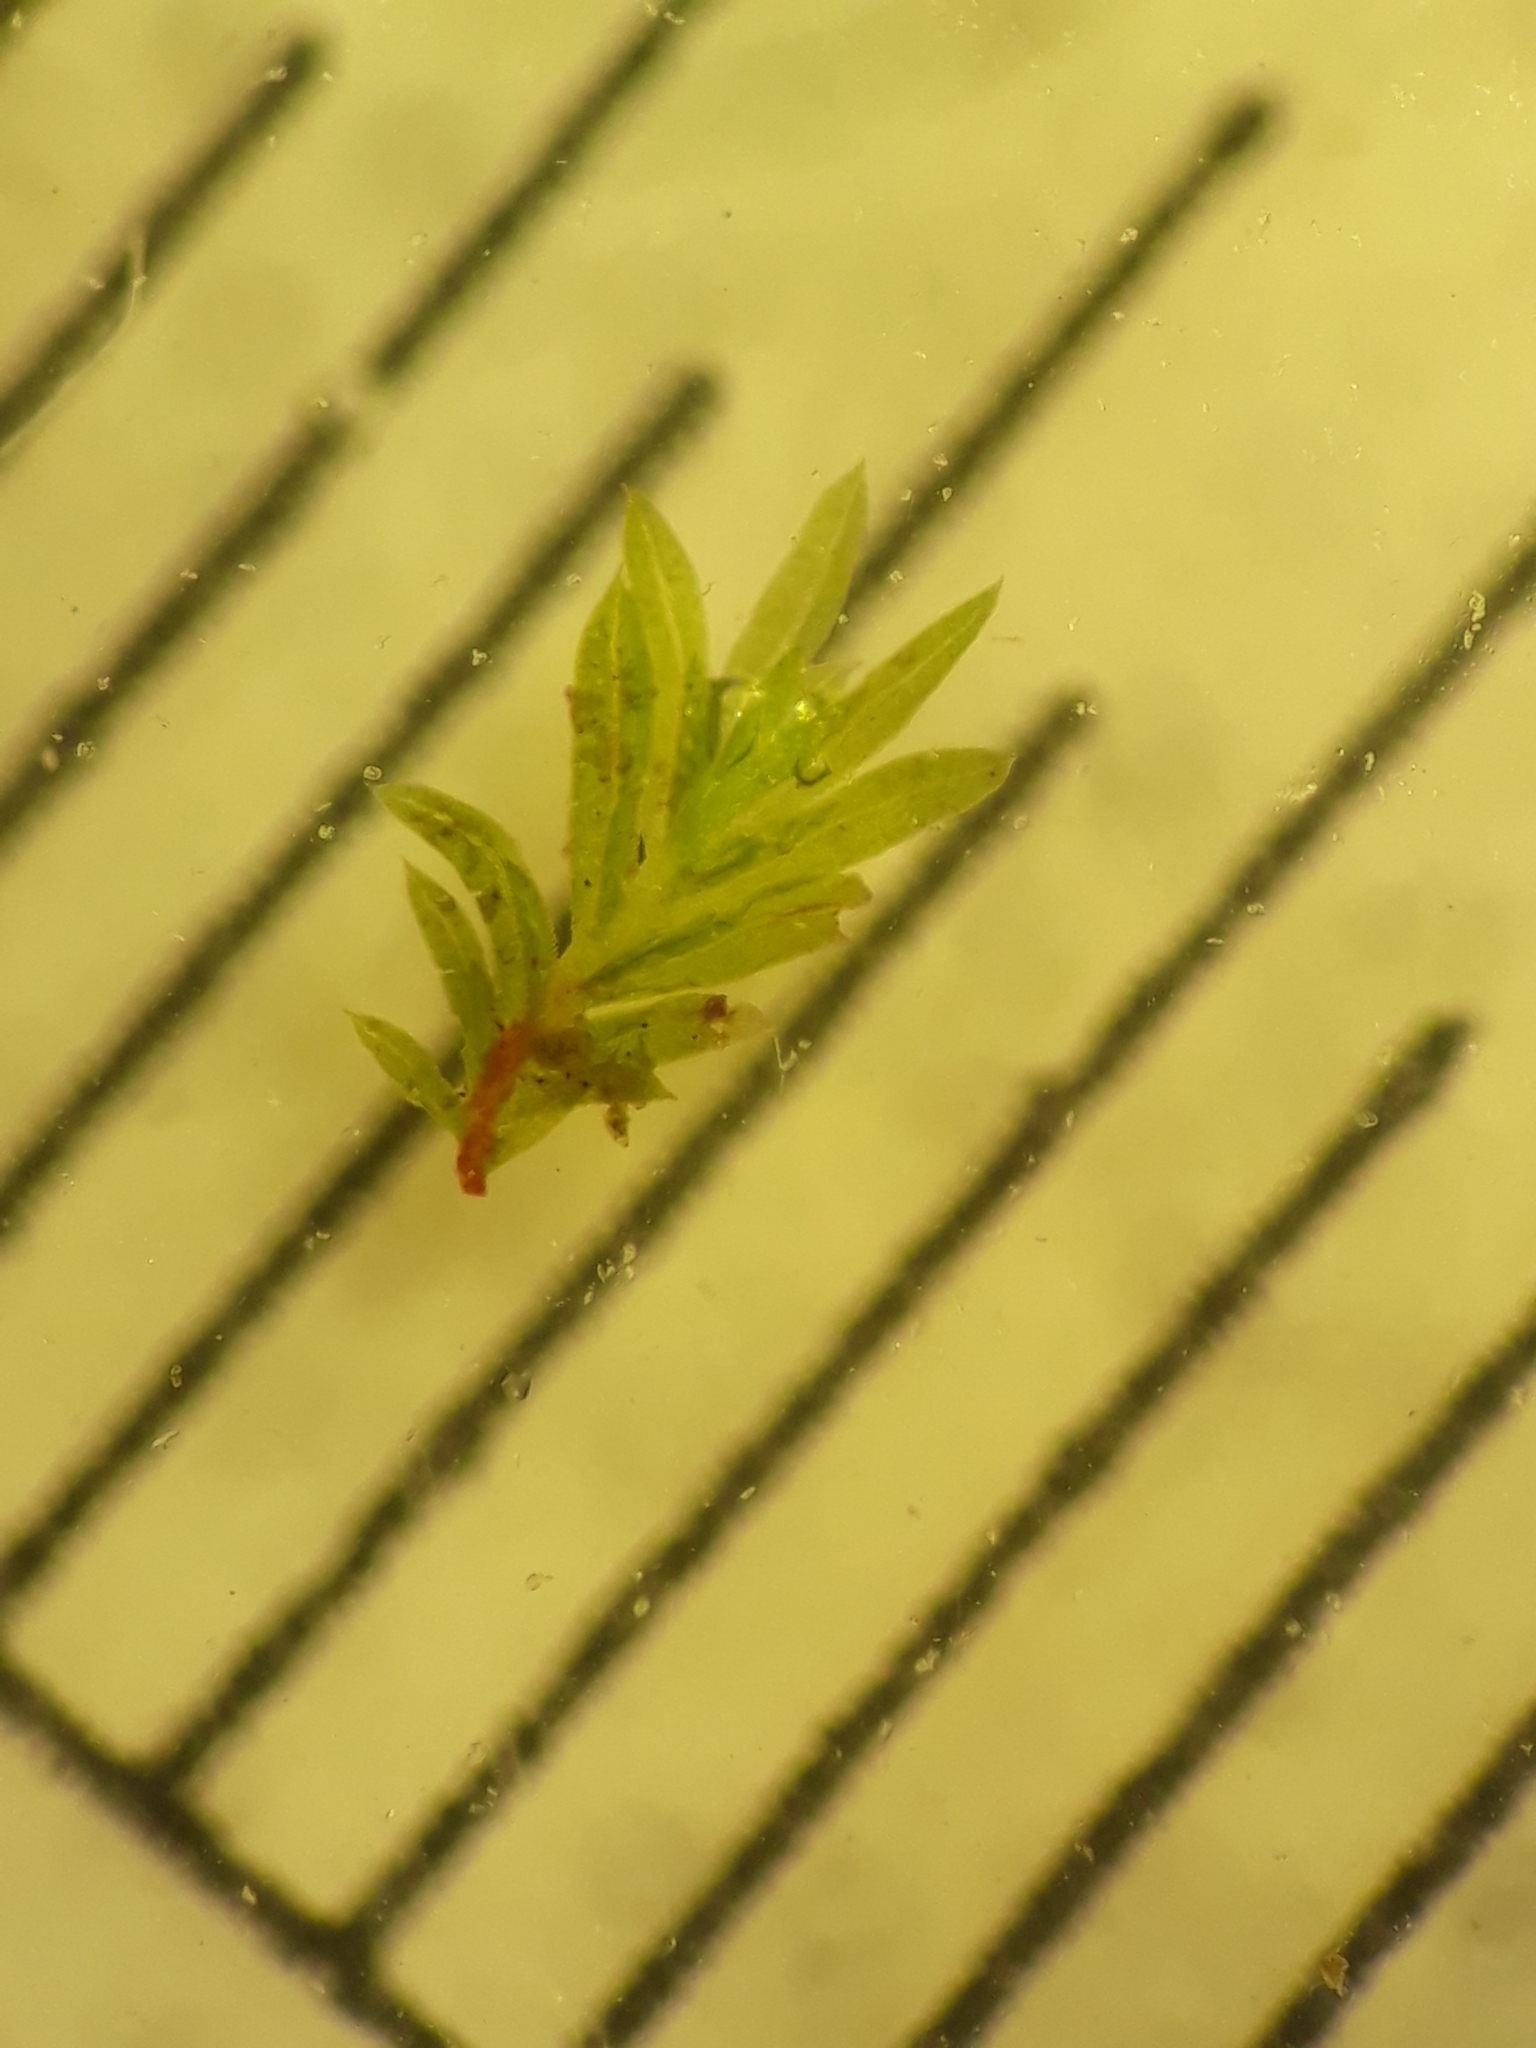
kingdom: Plantae
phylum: Bryophyta
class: Bryopsida
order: Dicranales
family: Fissidentaceae
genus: Fissidens
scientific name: Fissidens serratus
